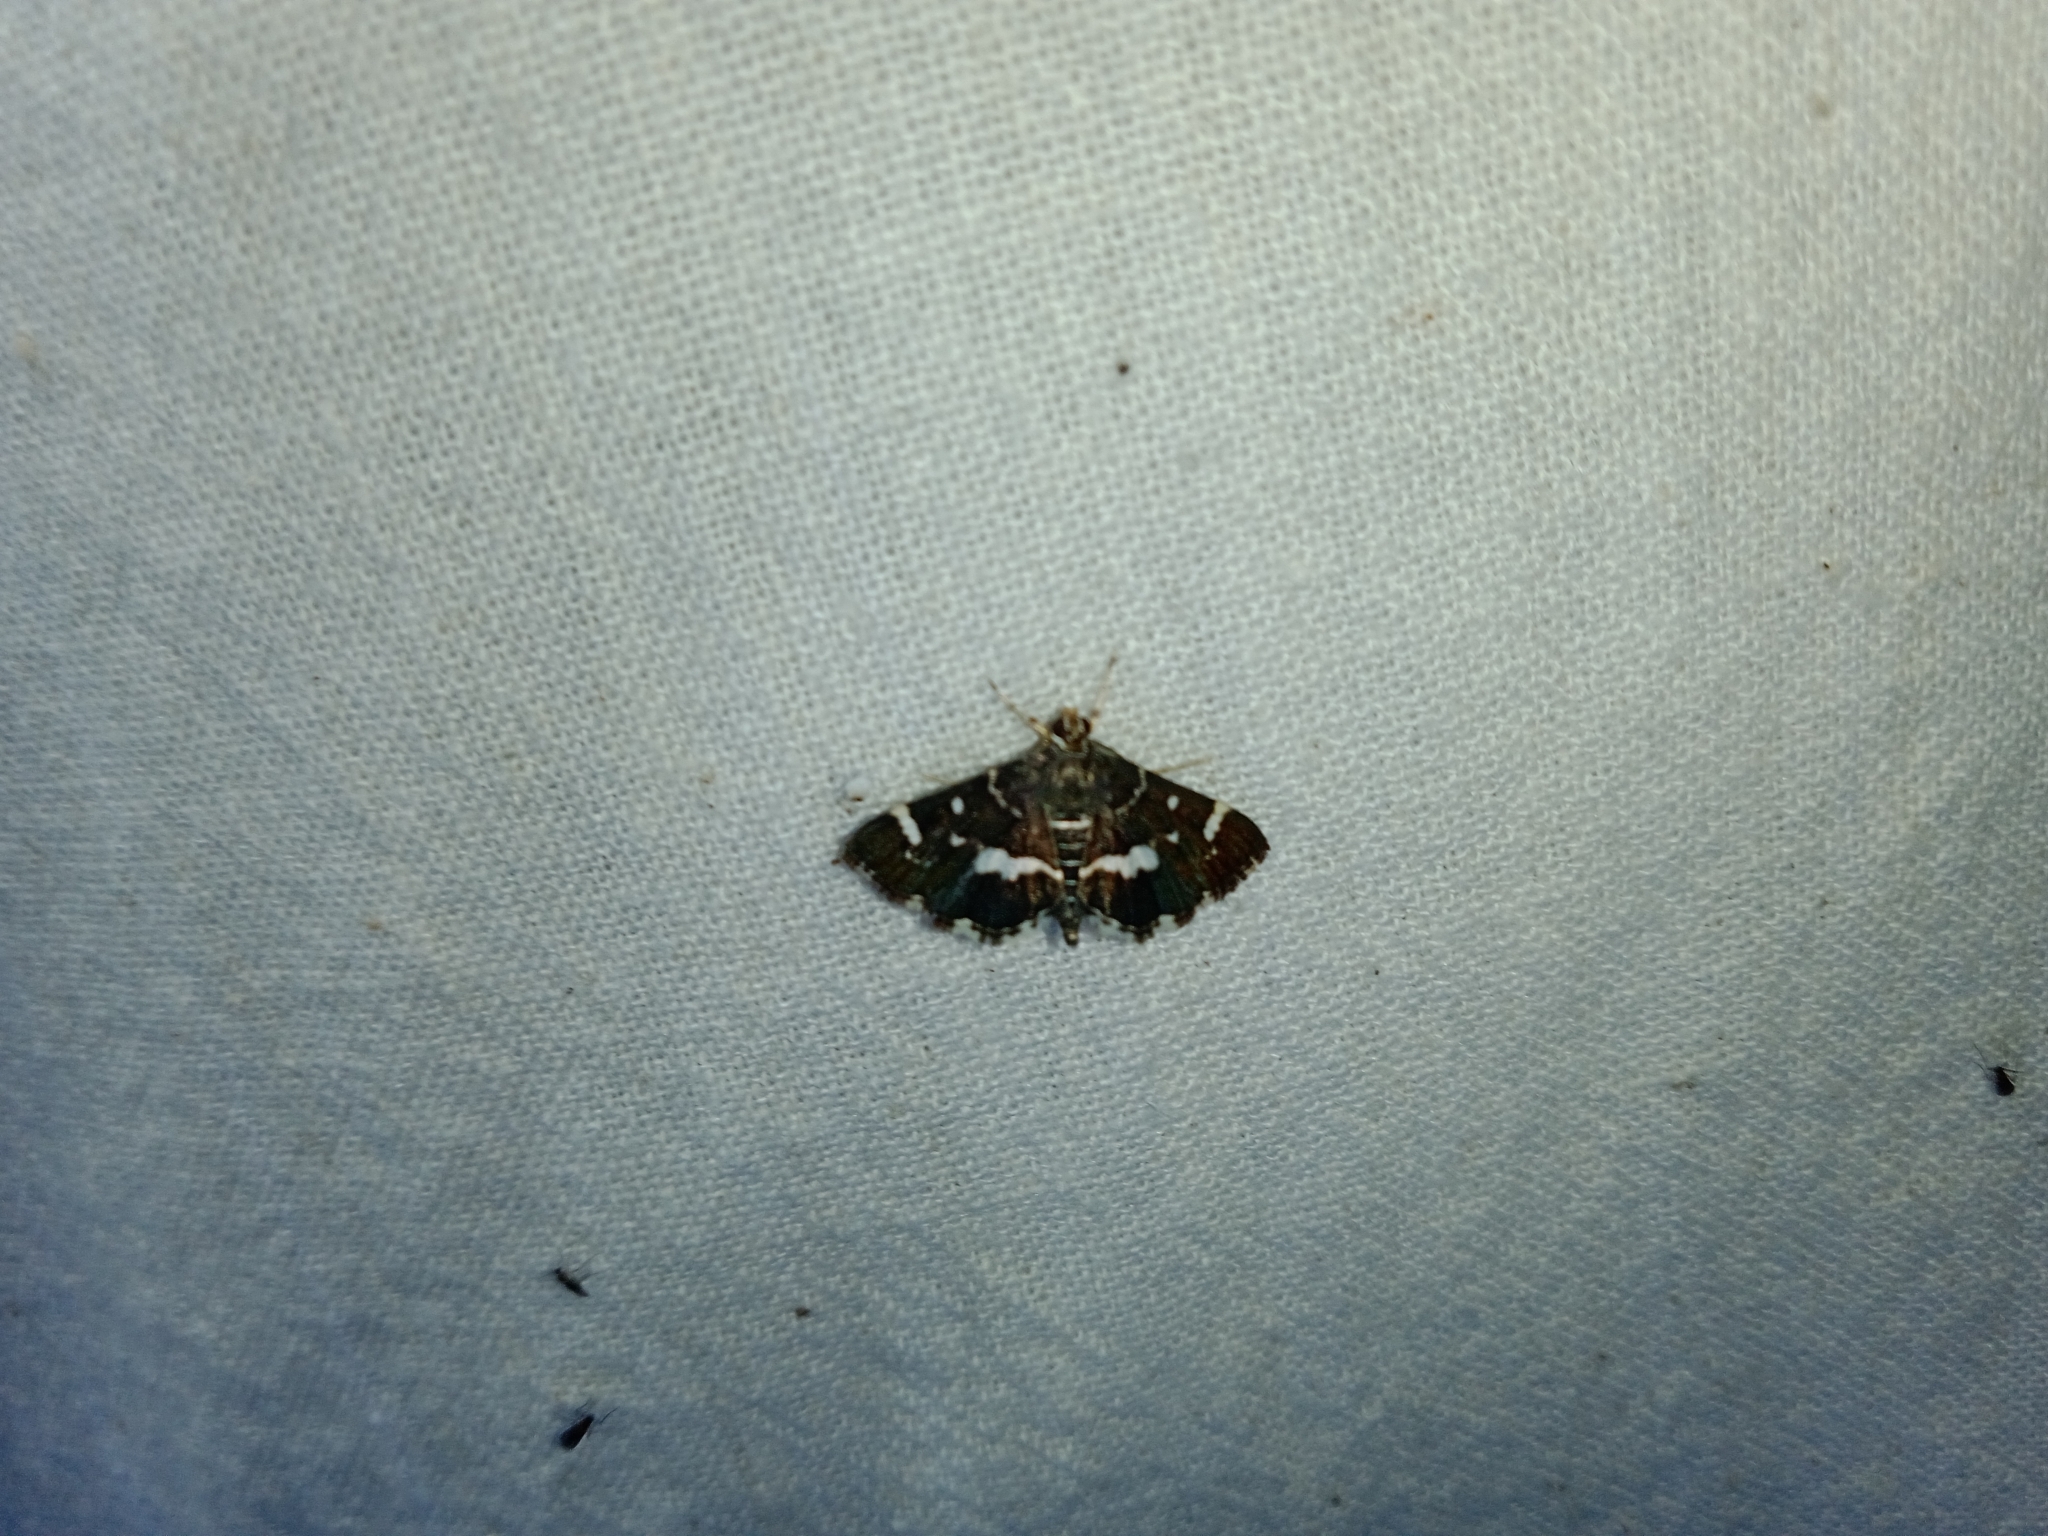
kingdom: Animalia
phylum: Arthropoda
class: Insecta
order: Lepidoptera
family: Crambidae
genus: Hymenia
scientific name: Hymenia perspectalis
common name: Spotted beet webworm
